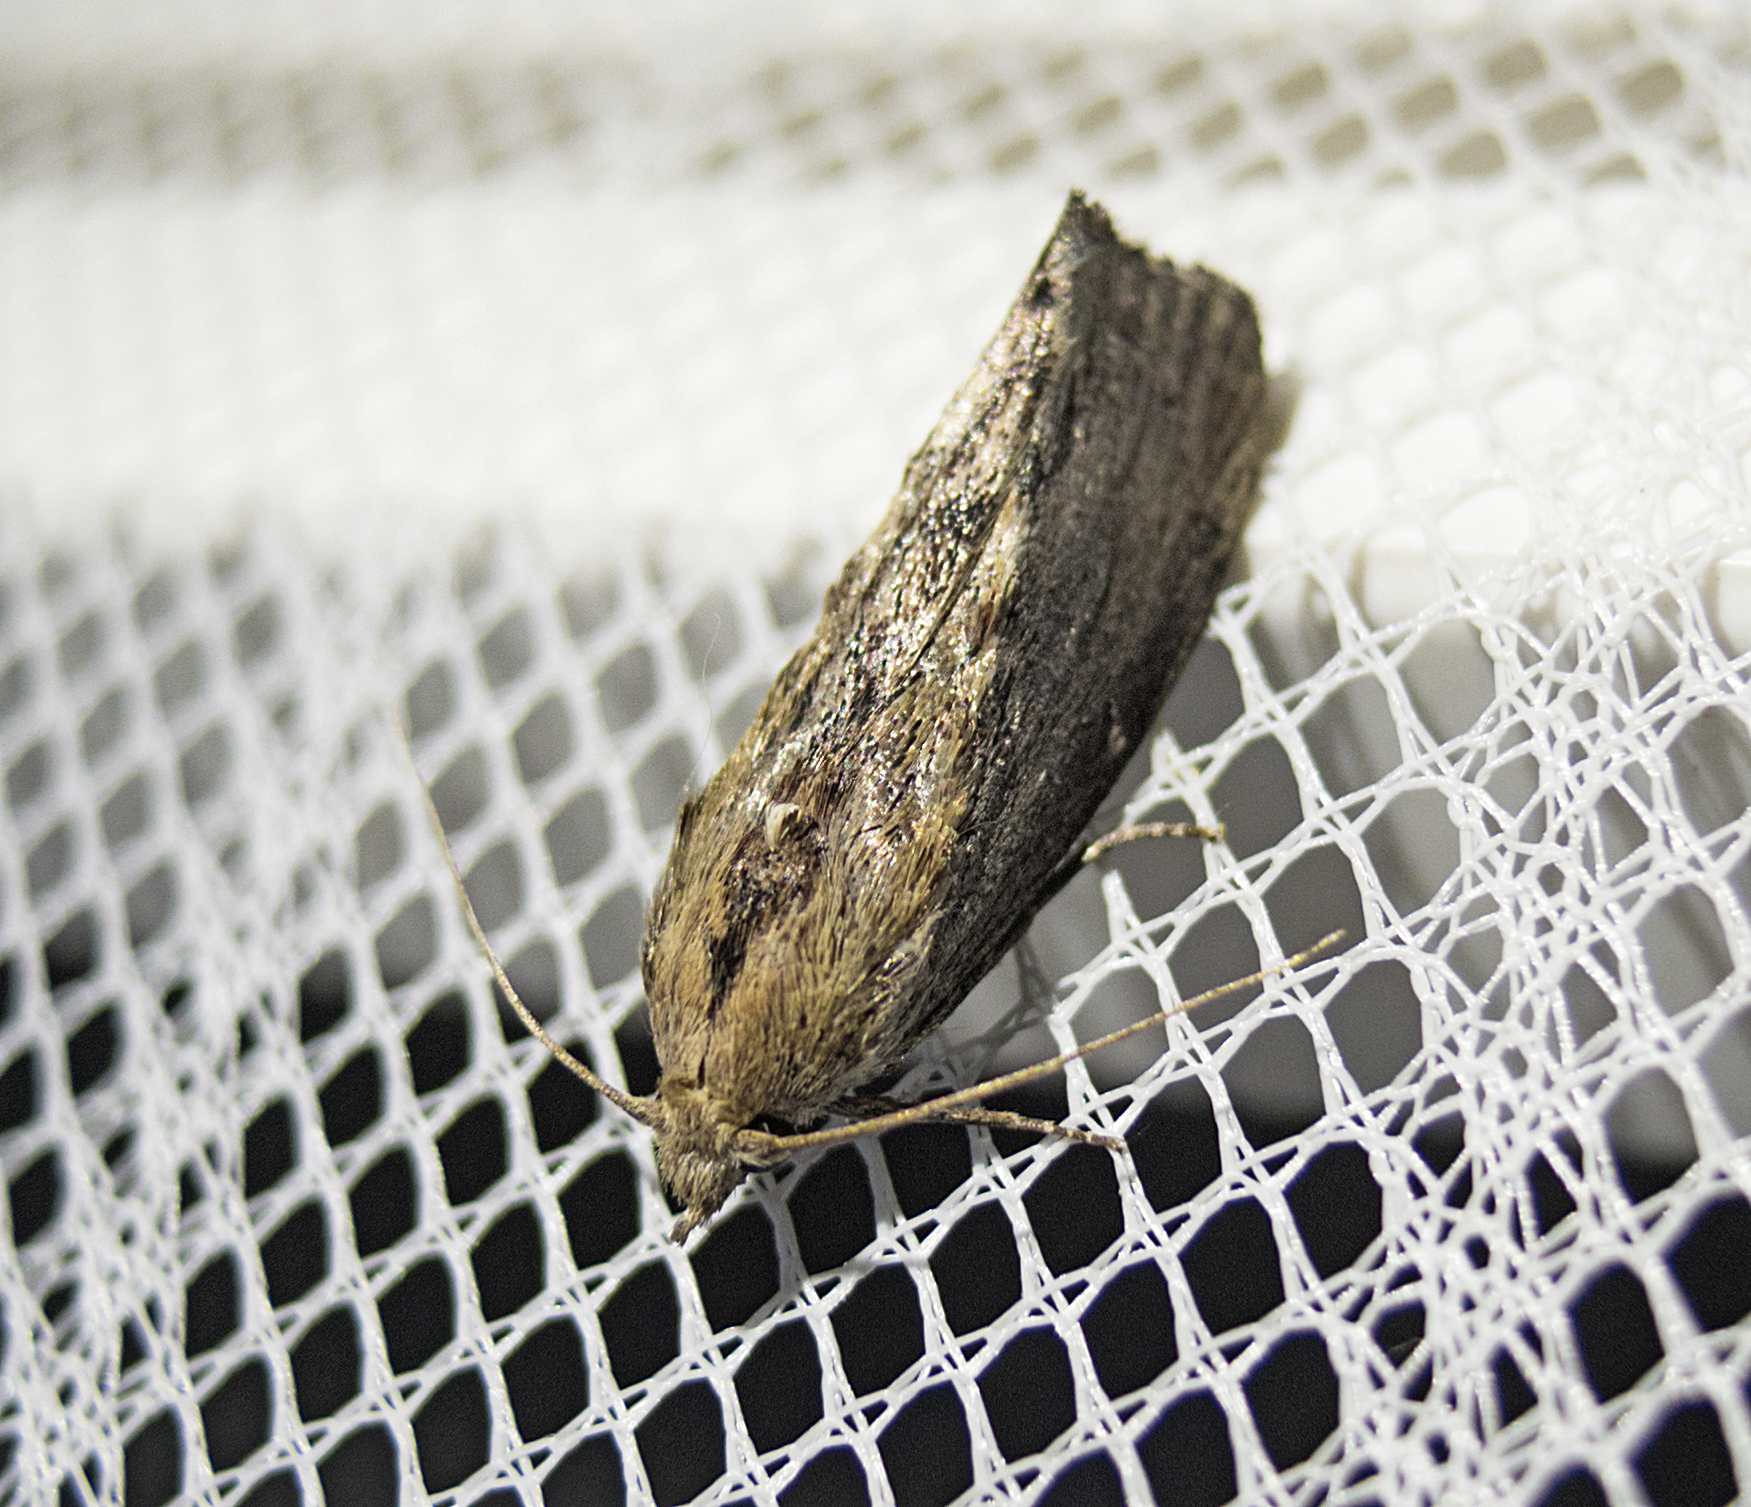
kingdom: Animalia
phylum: Arthropoda
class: Insecta
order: Lepidoptera
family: Pyralidae
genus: Galleria
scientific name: Galleria mellonella
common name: Greater wax moth
